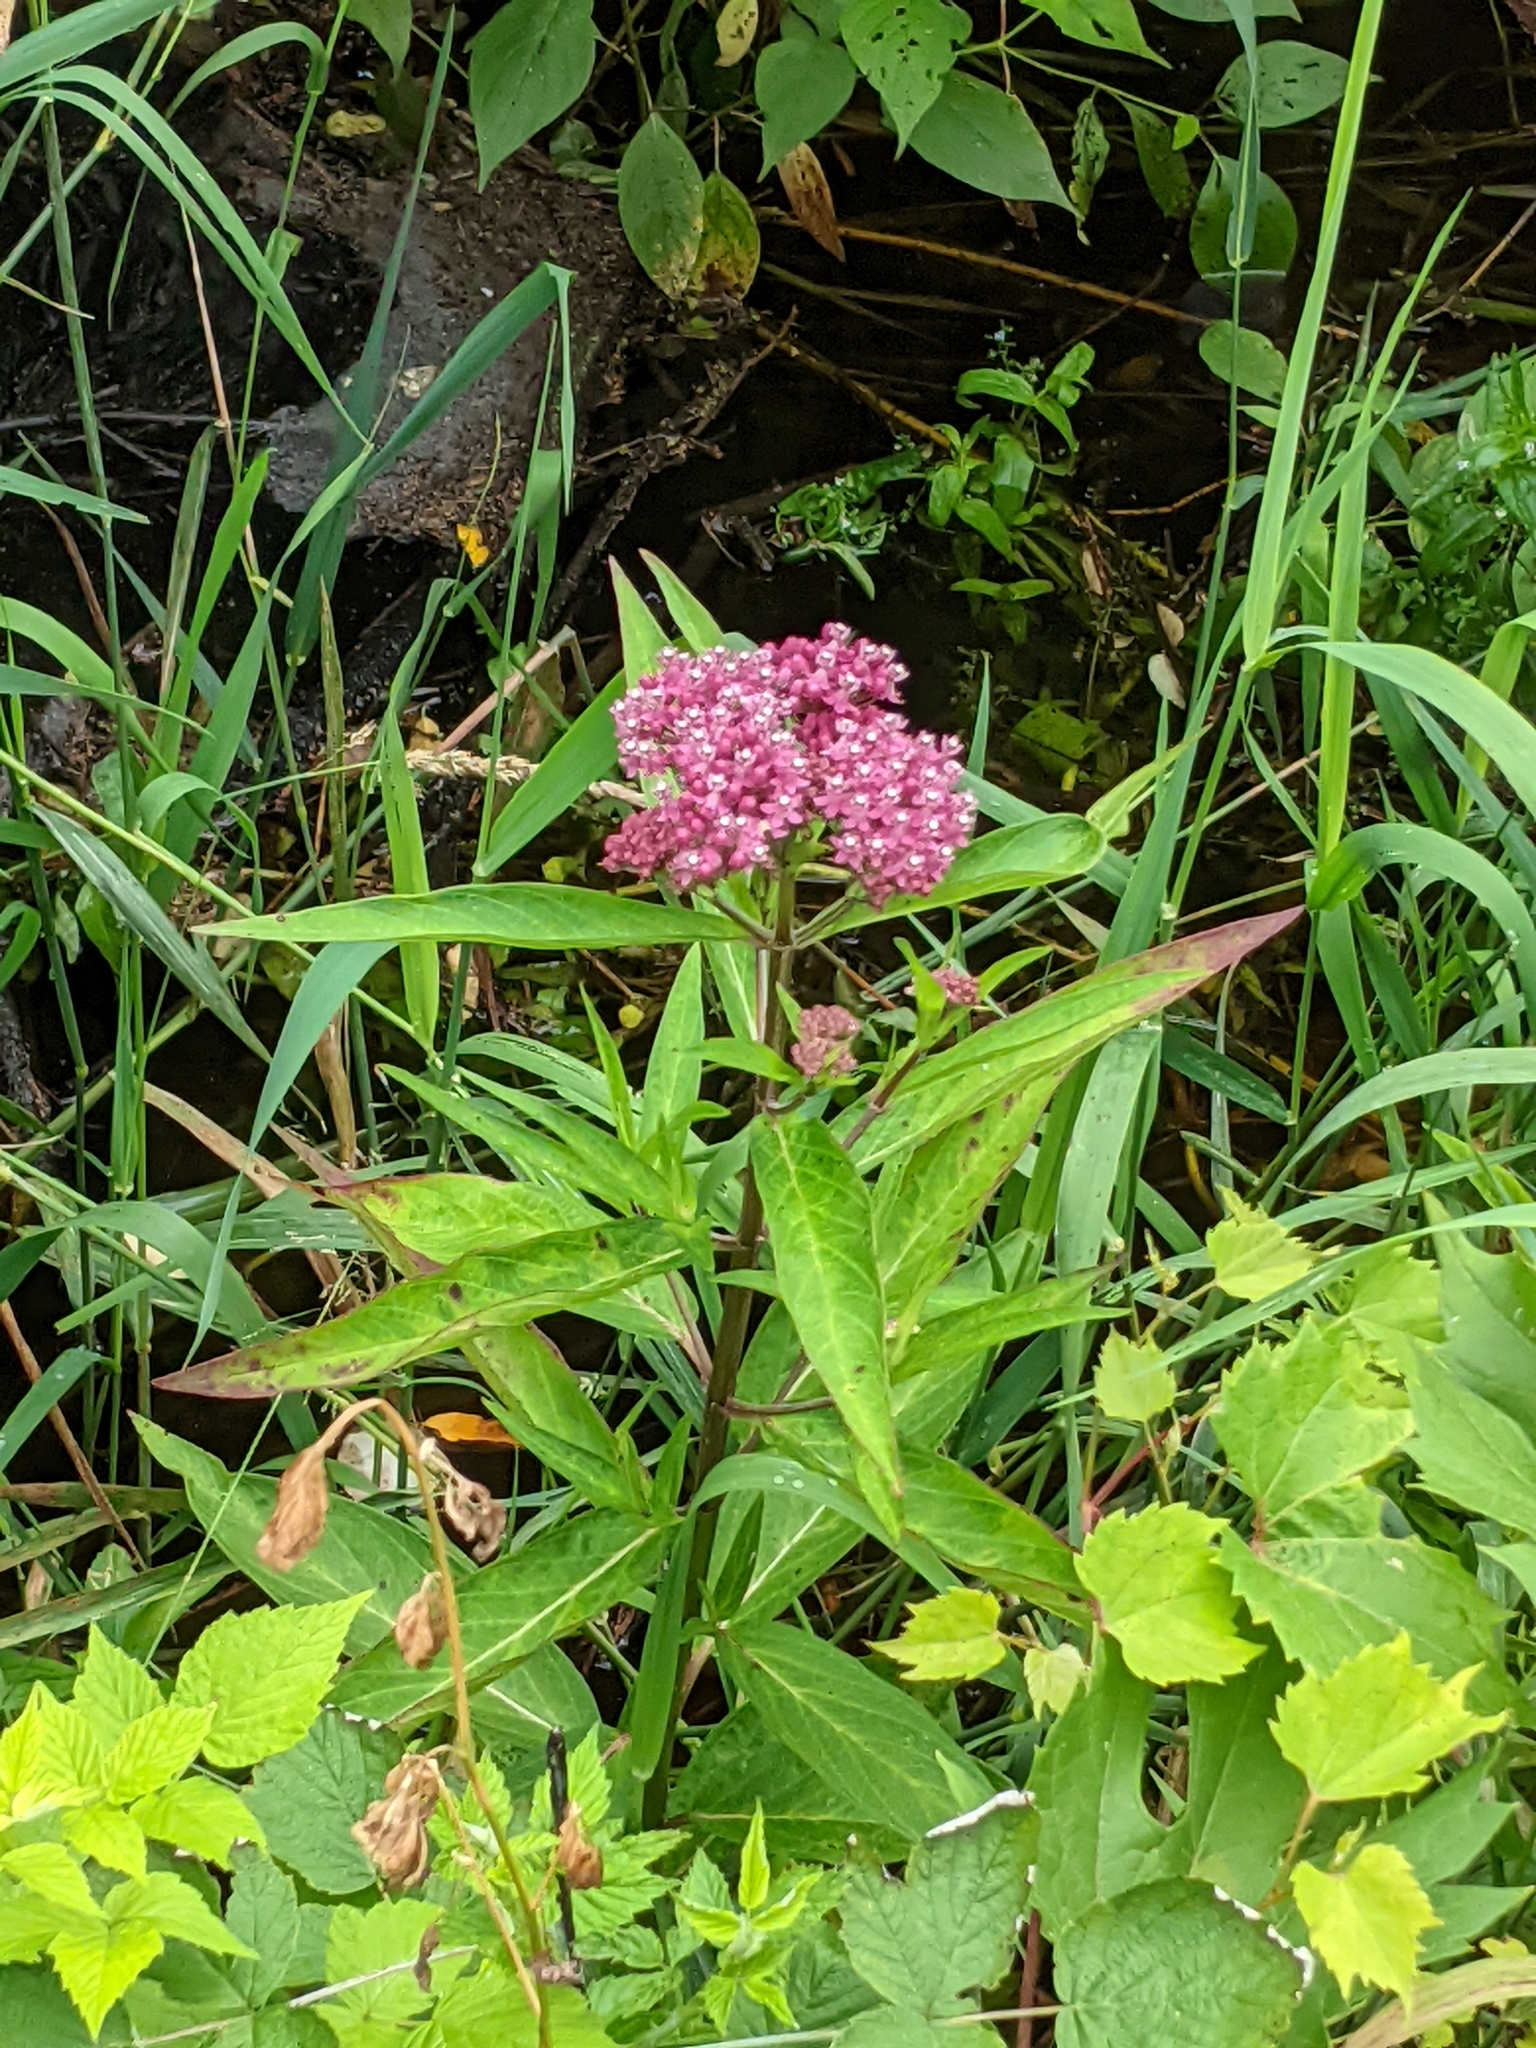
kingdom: Plantae
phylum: Tracheophyta
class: Magnoliopsida
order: Gentianales
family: Apocynaceae
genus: Asclepias
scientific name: Asclepias incarnata
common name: Swamp milkweed
